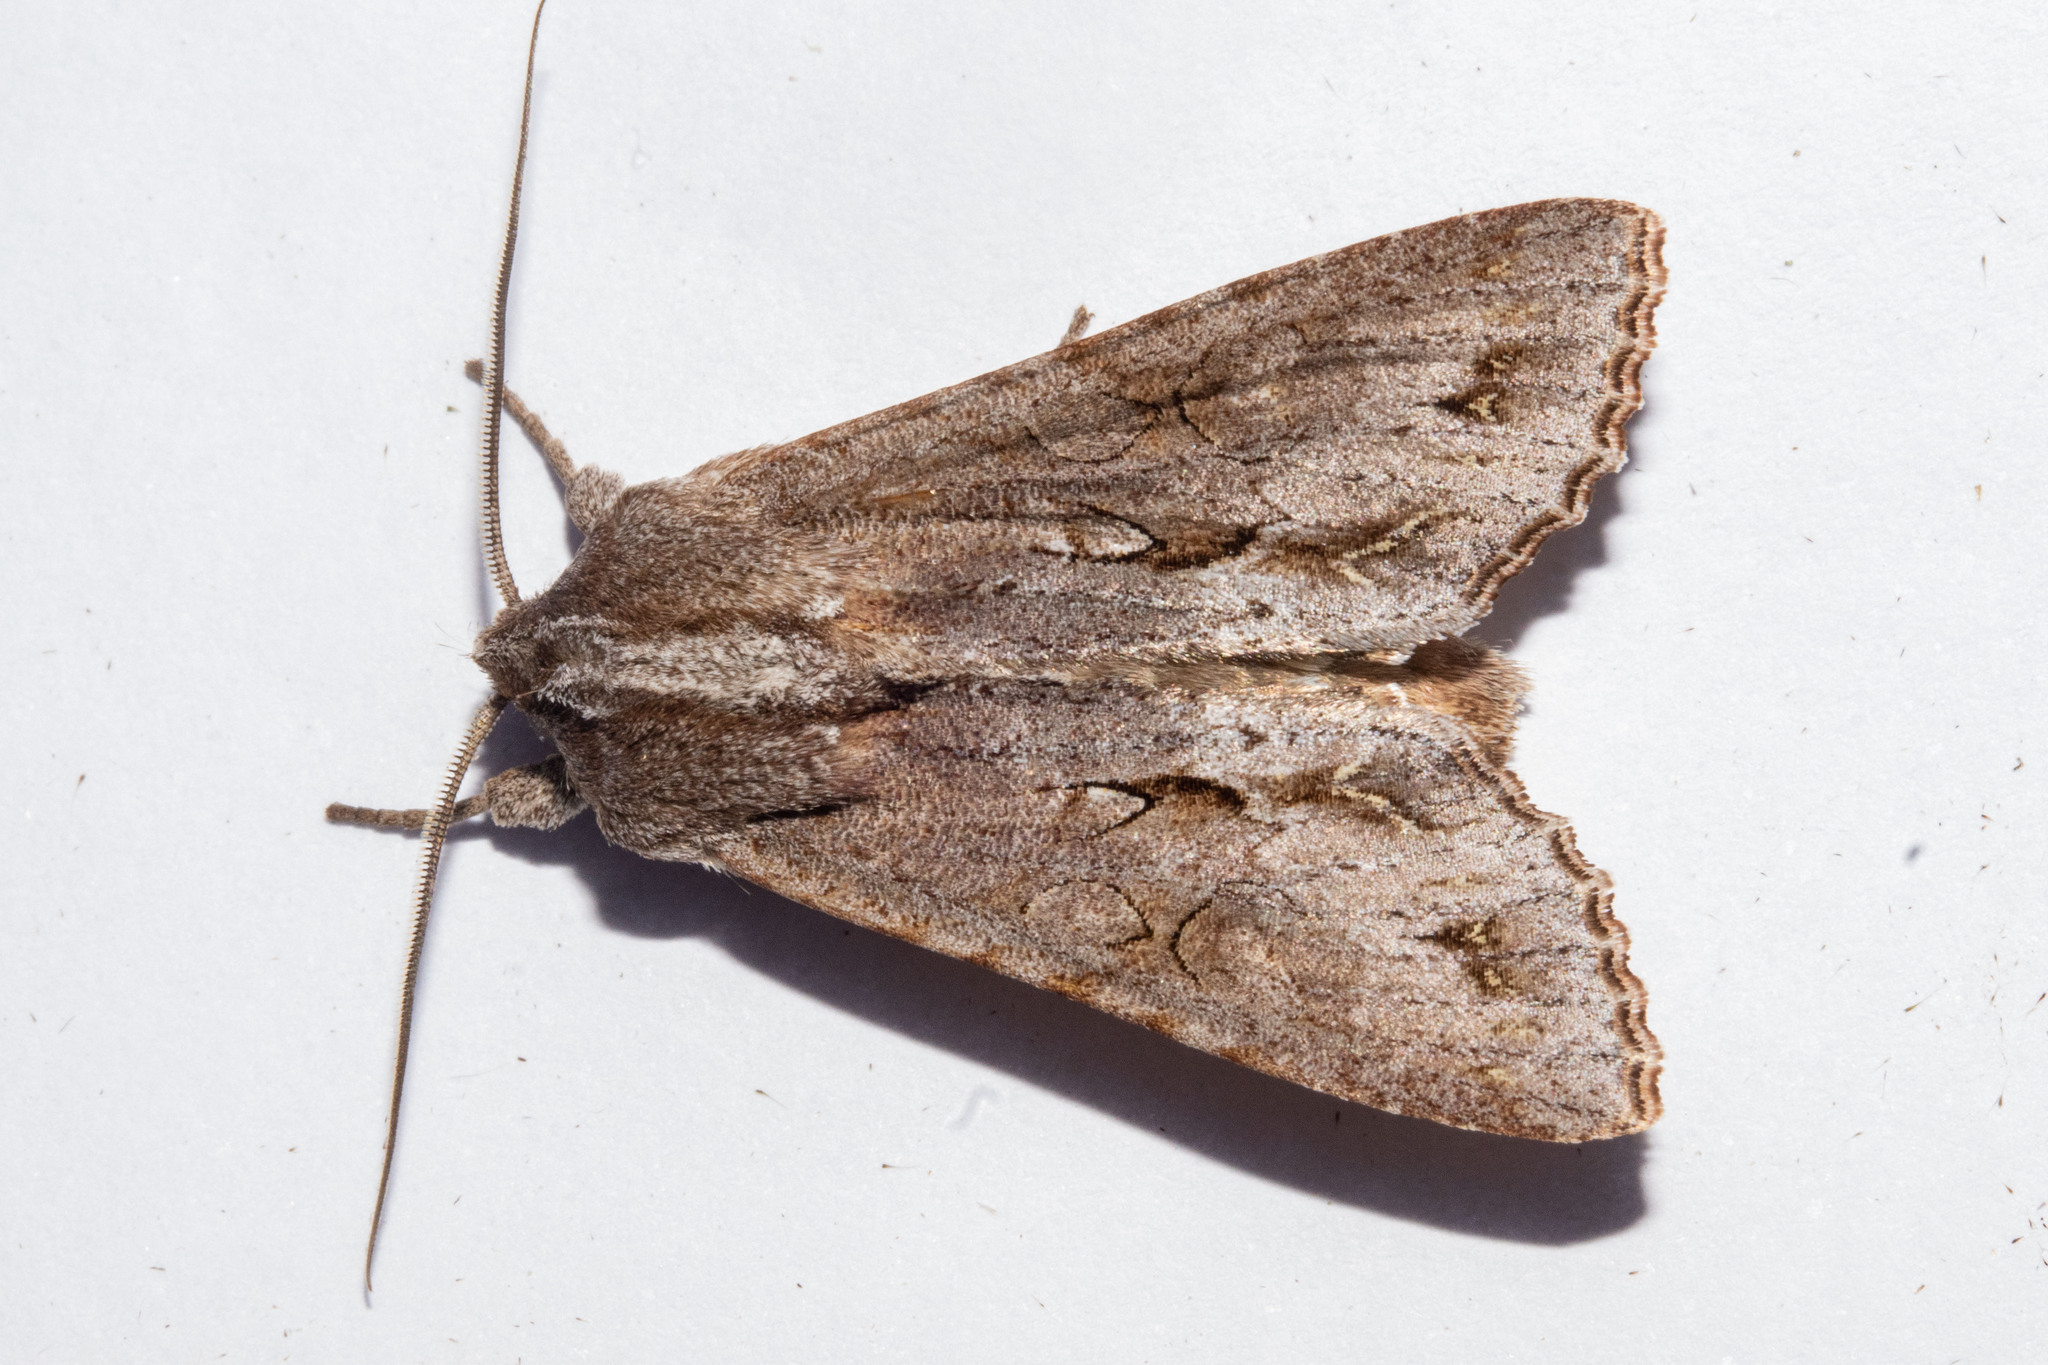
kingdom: Animalia
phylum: Arthropoda
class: Insecta
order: Lepidoptera
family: Noctuidae
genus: Ichneutica
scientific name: Ichneutica
